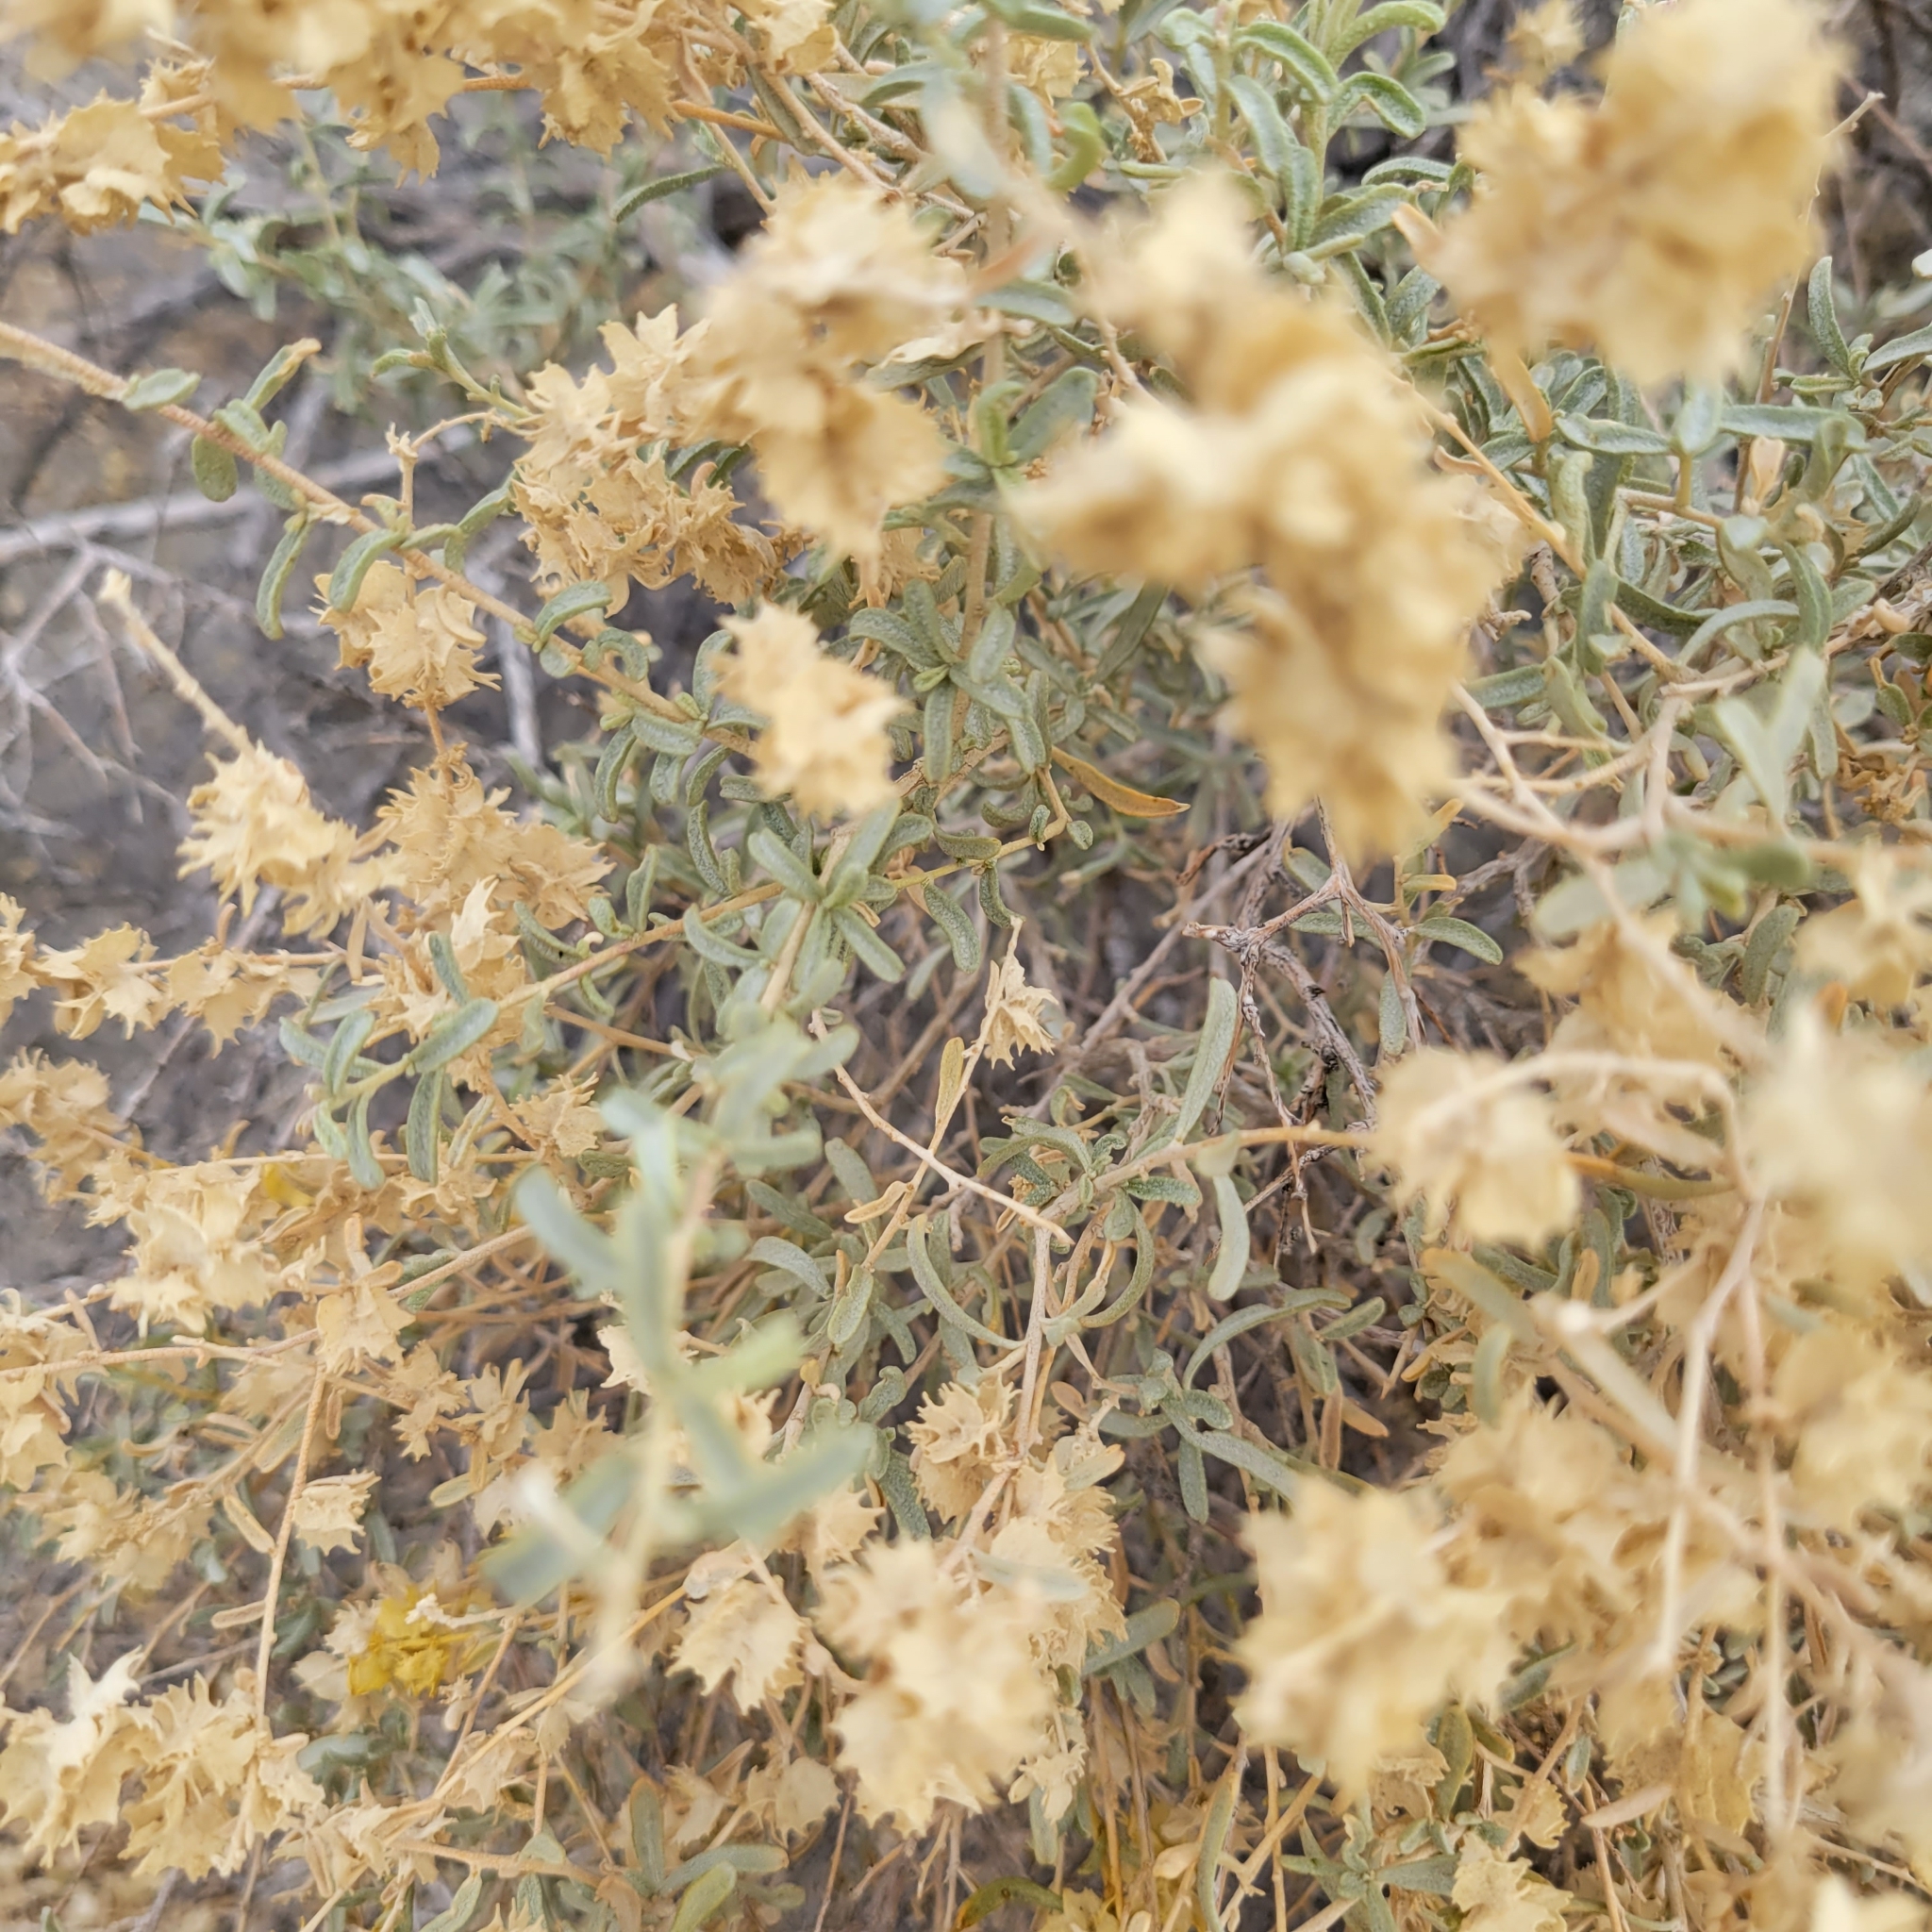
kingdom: Plantae
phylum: Tracheophyta
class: Magnoliopsida
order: Caryophyllales
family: Amaranthaceae
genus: Atriplex
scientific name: Atriplex canescens
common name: Four-wing saltbush
